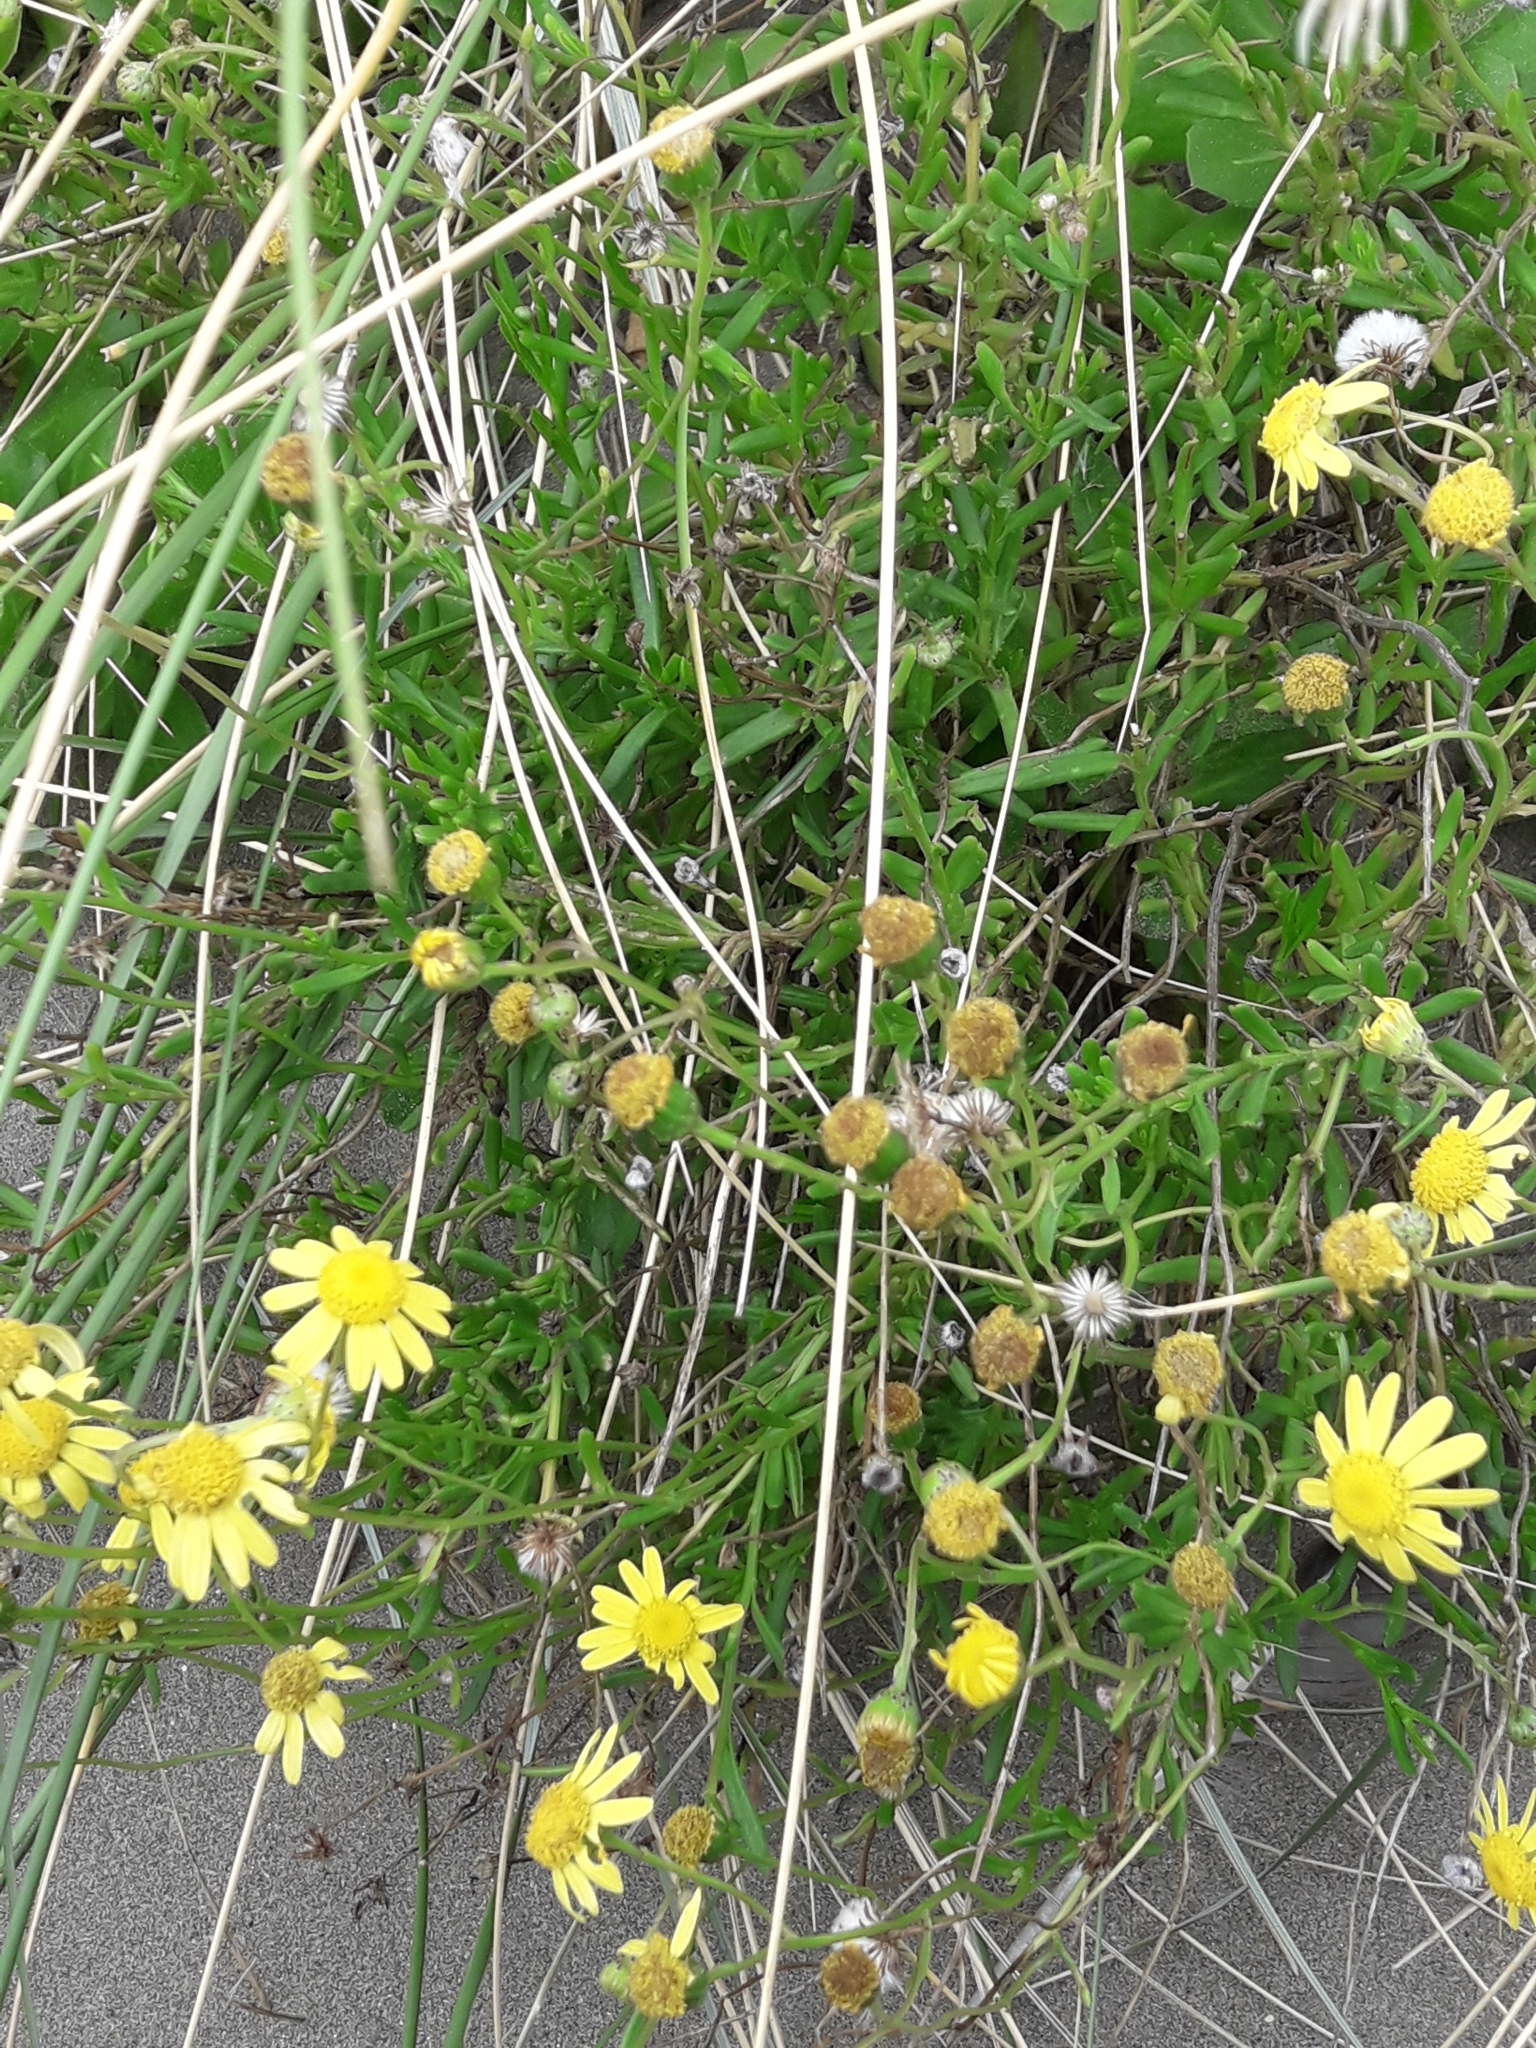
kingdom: Plantae
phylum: Tracheophyta
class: Magnoliopsida
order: Asterales
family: Asteraceae
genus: Senecio
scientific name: Senecio skirrhodon
